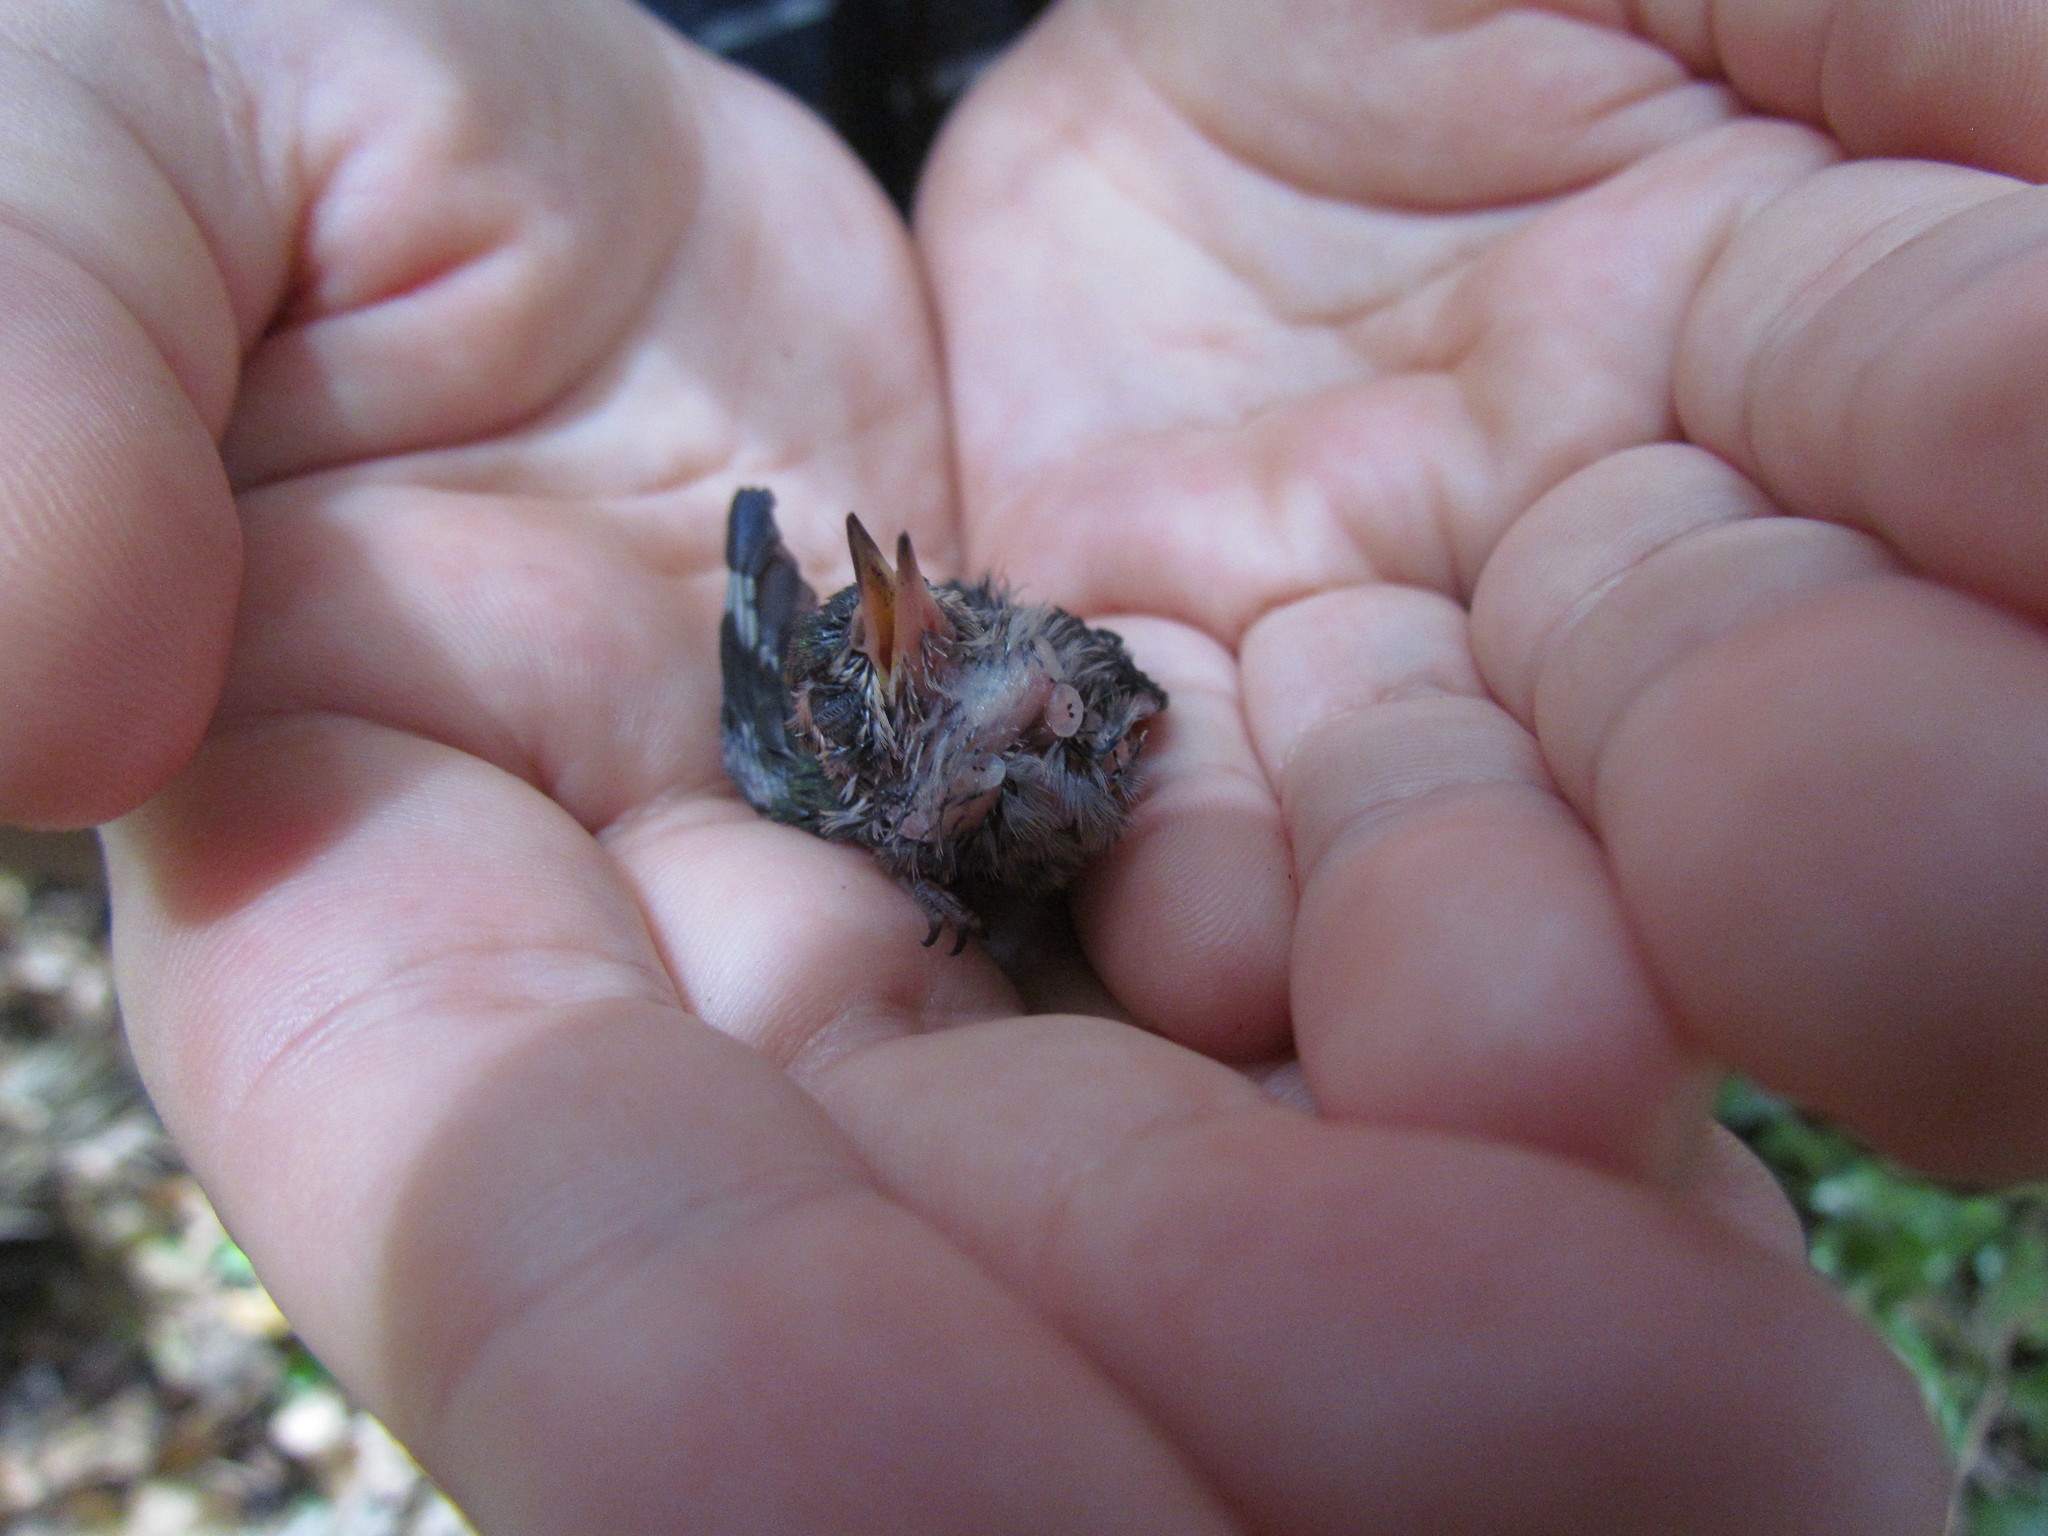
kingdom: Animalia
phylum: Chordata
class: Aves
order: Apodiformes
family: Trochilidae
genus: Chlorostilbon
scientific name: Chlorostilbon lucidus
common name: Glittering-bellied emerald
